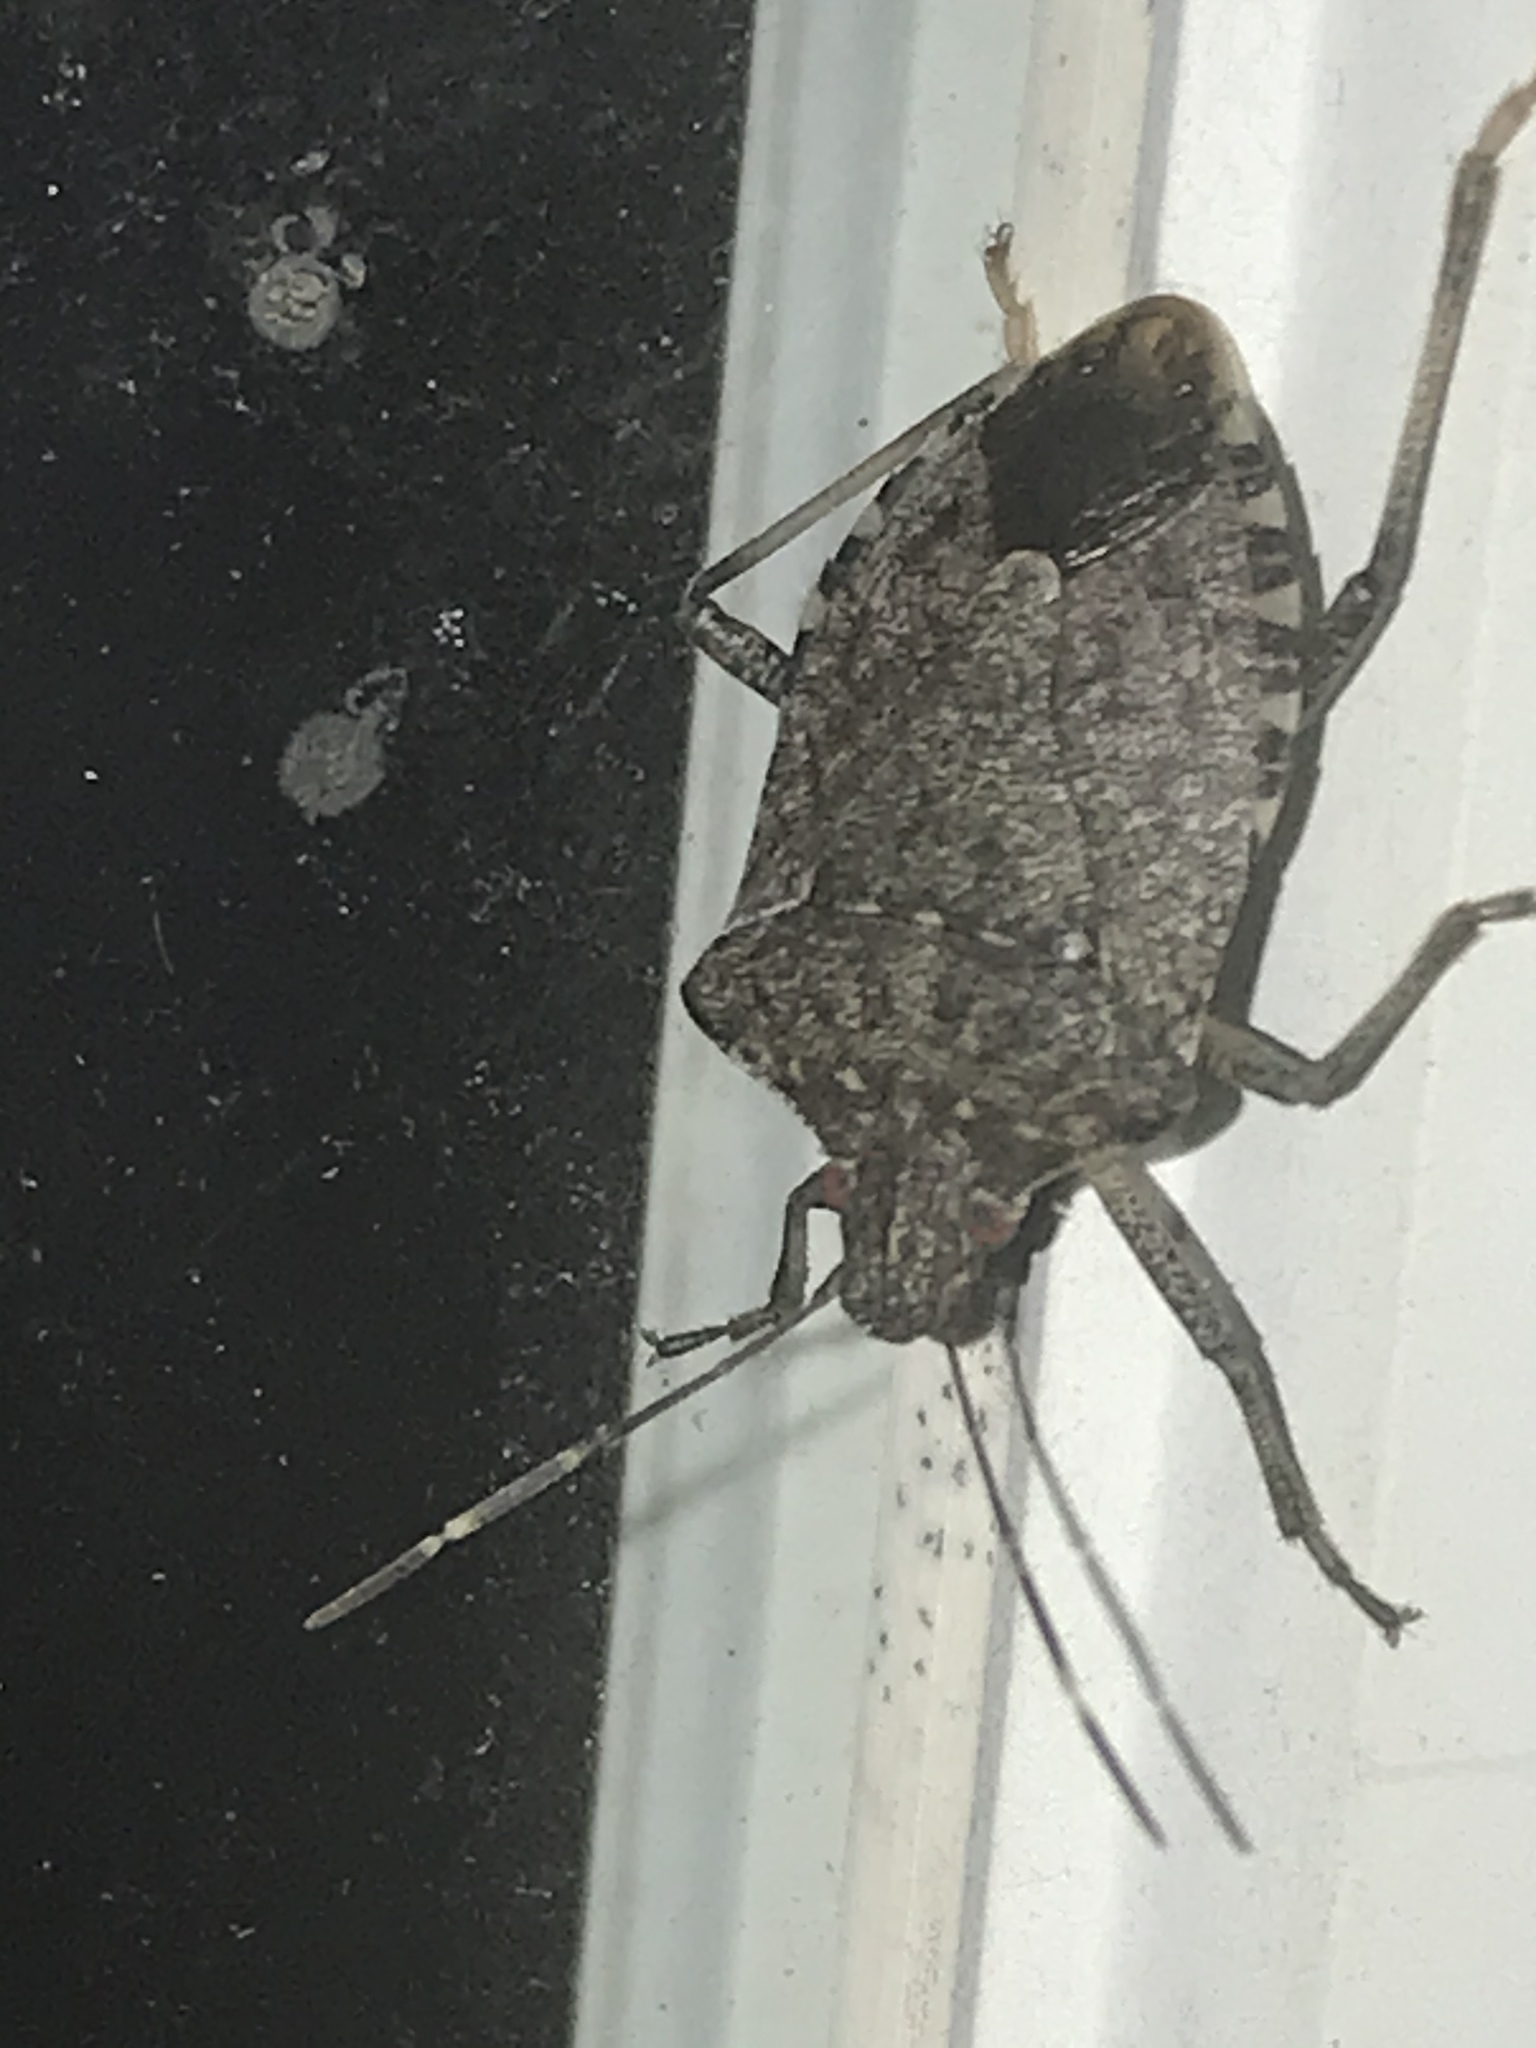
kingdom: Animalia
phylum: Arthropoda
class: Insecta
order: Hemiptera
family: Pentatomidae
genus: Halyomorpha
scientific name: Halyomorpha halys
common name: Brown marmorated stink bug
